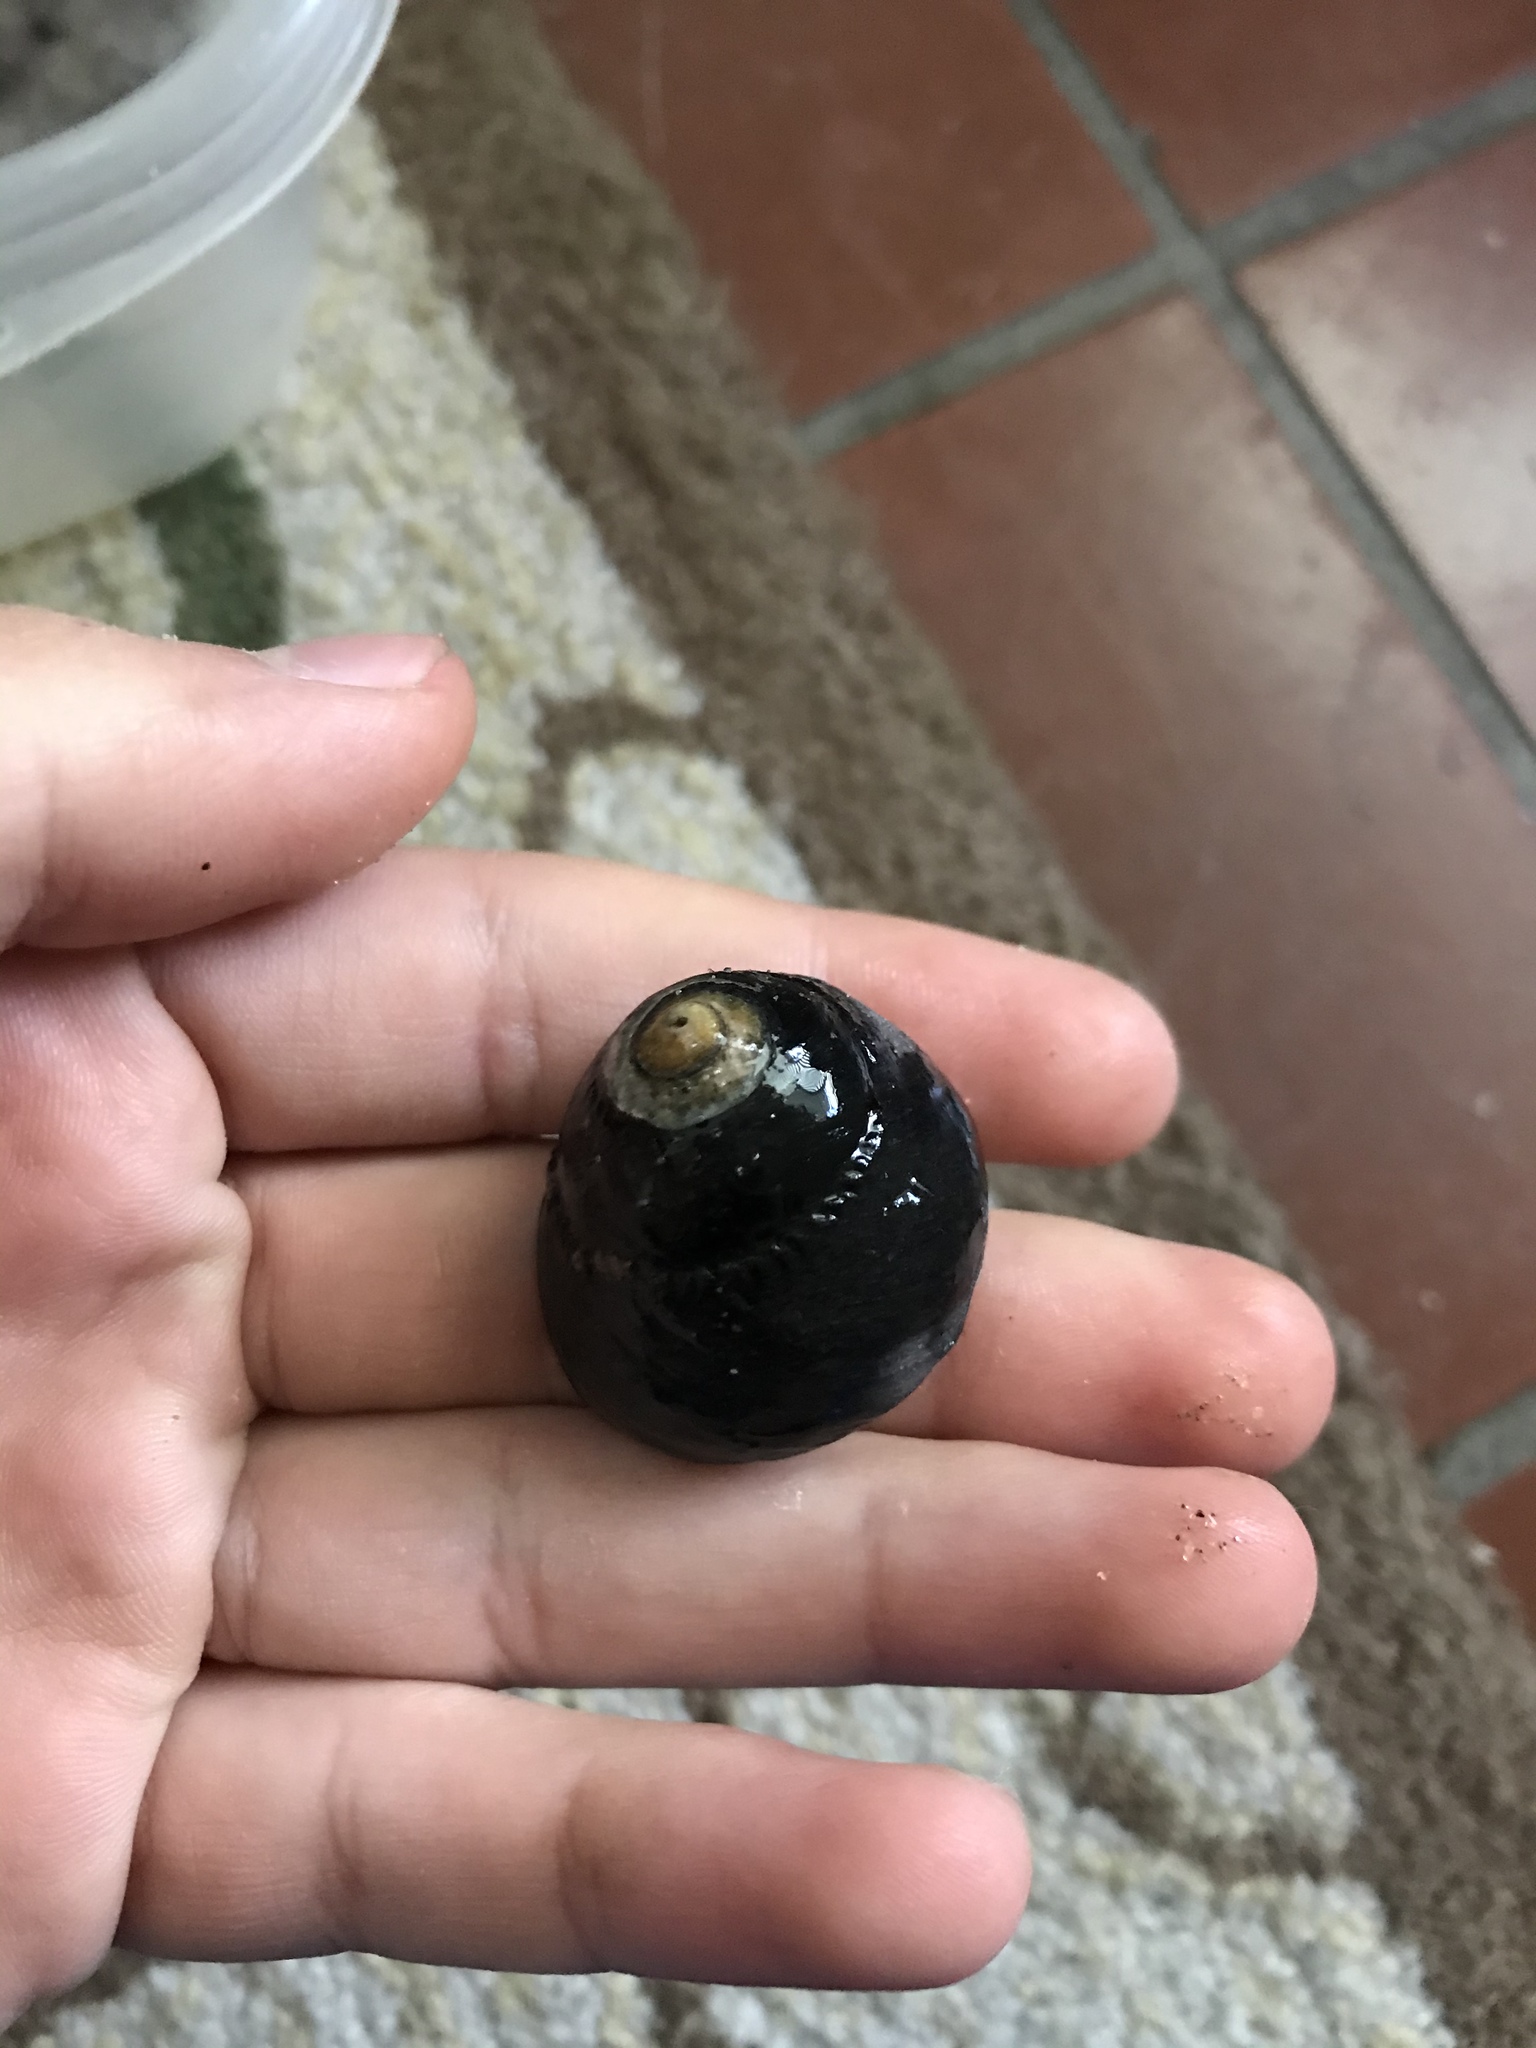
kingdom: Animalia
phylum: Mollusca
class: Gastropoda
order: Trochida
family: Tegulidae
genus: Tegula
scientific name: Tegula funebralis
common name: Black tegula
